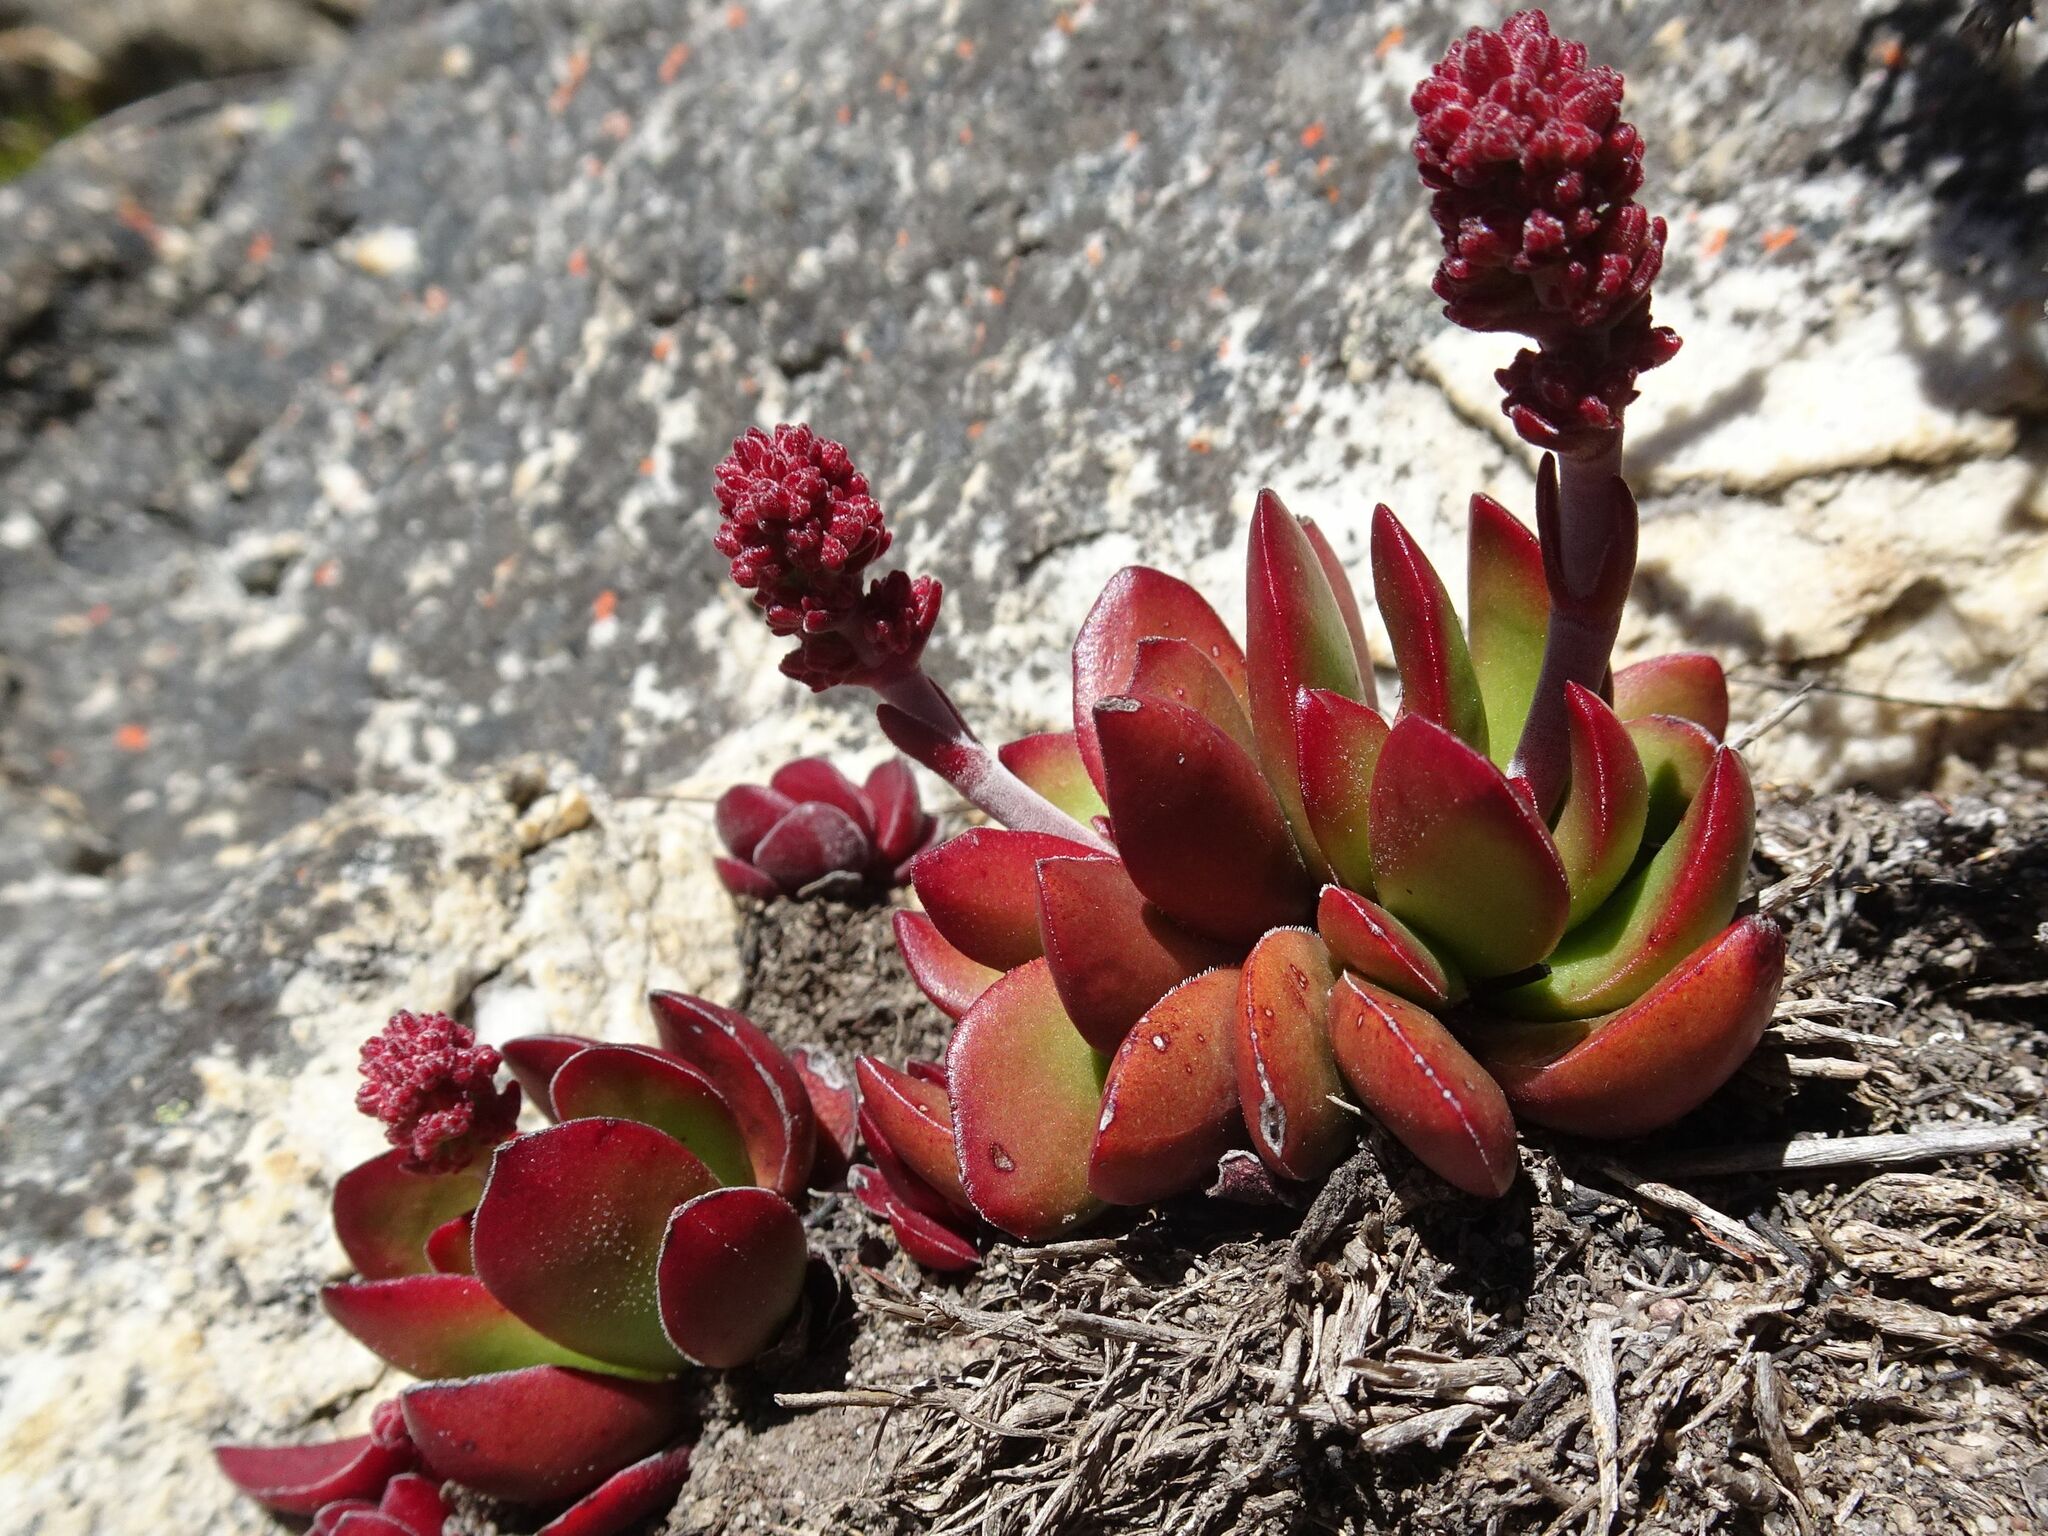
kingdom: Plantae
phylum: Tracheophyta
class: Magnoliopsida
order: Saxifragales
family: Crassulaceae
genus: Crassula
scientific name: Crassula nudicaulis
